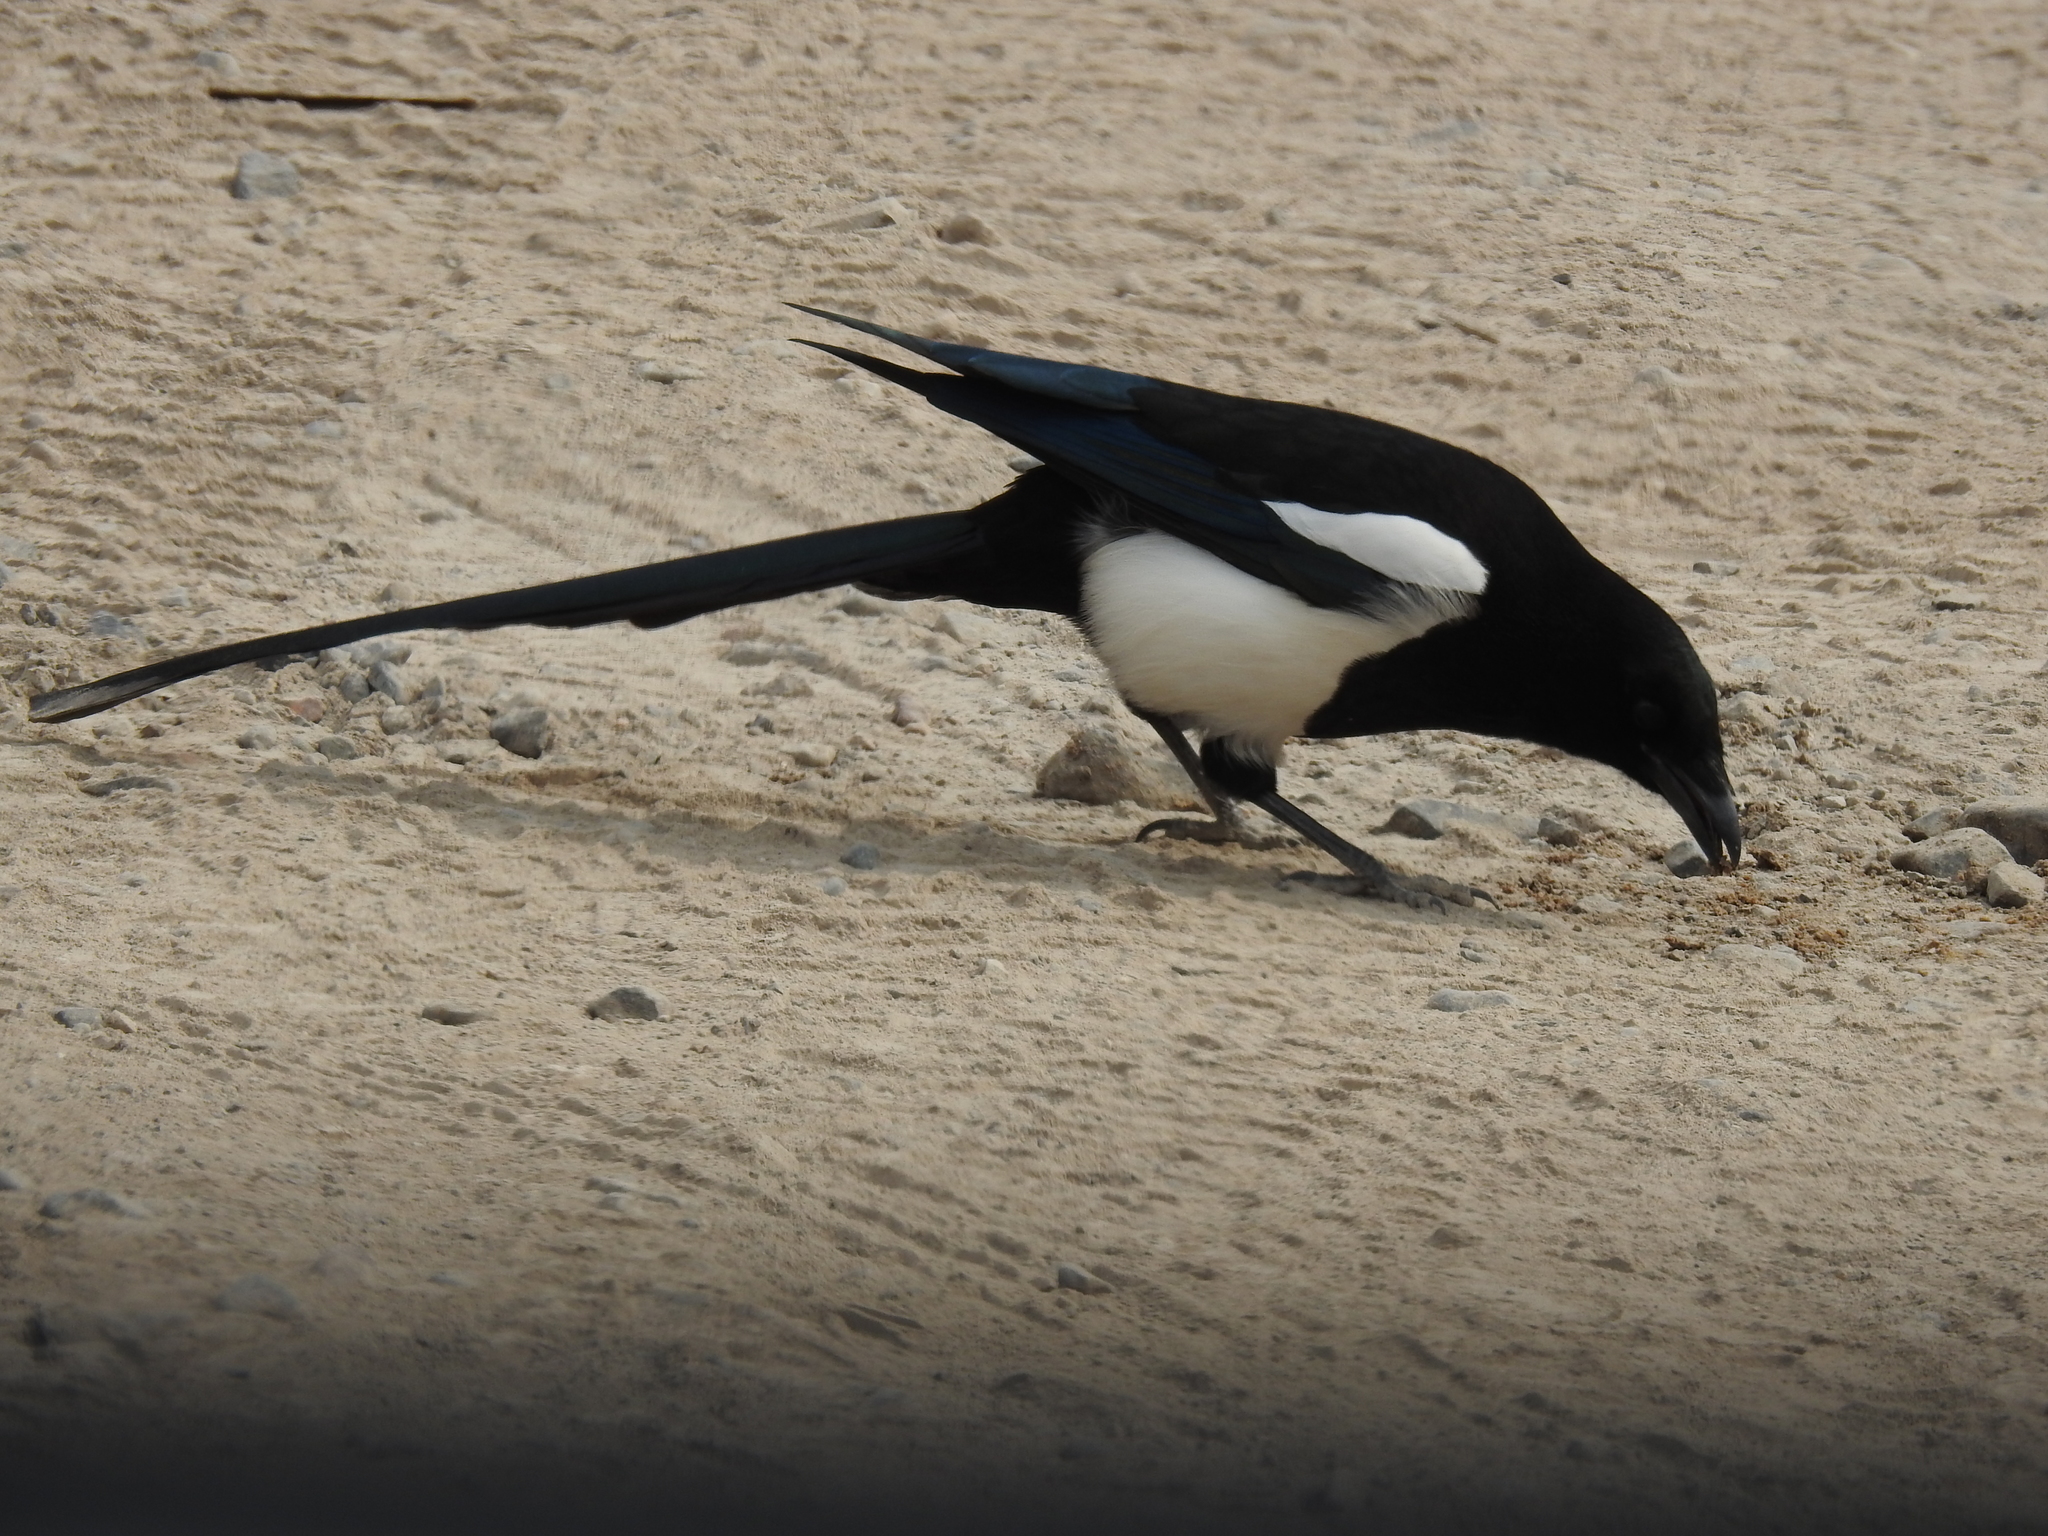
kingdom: Animalia
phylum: Chordata
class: Aves
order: Passeriformes
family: Corvidae
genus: Pica
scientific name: Pica hudsonia
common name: Black-billed magpie
